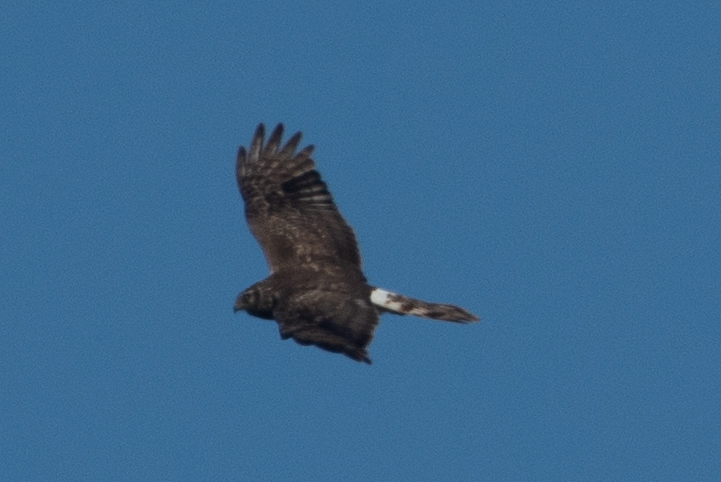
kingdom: Animalia
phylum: Chordata
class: Aves
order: Accipitriformes
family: Accipitridae
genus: Circus
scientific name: Circus cyaneus
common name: Hen harrier
